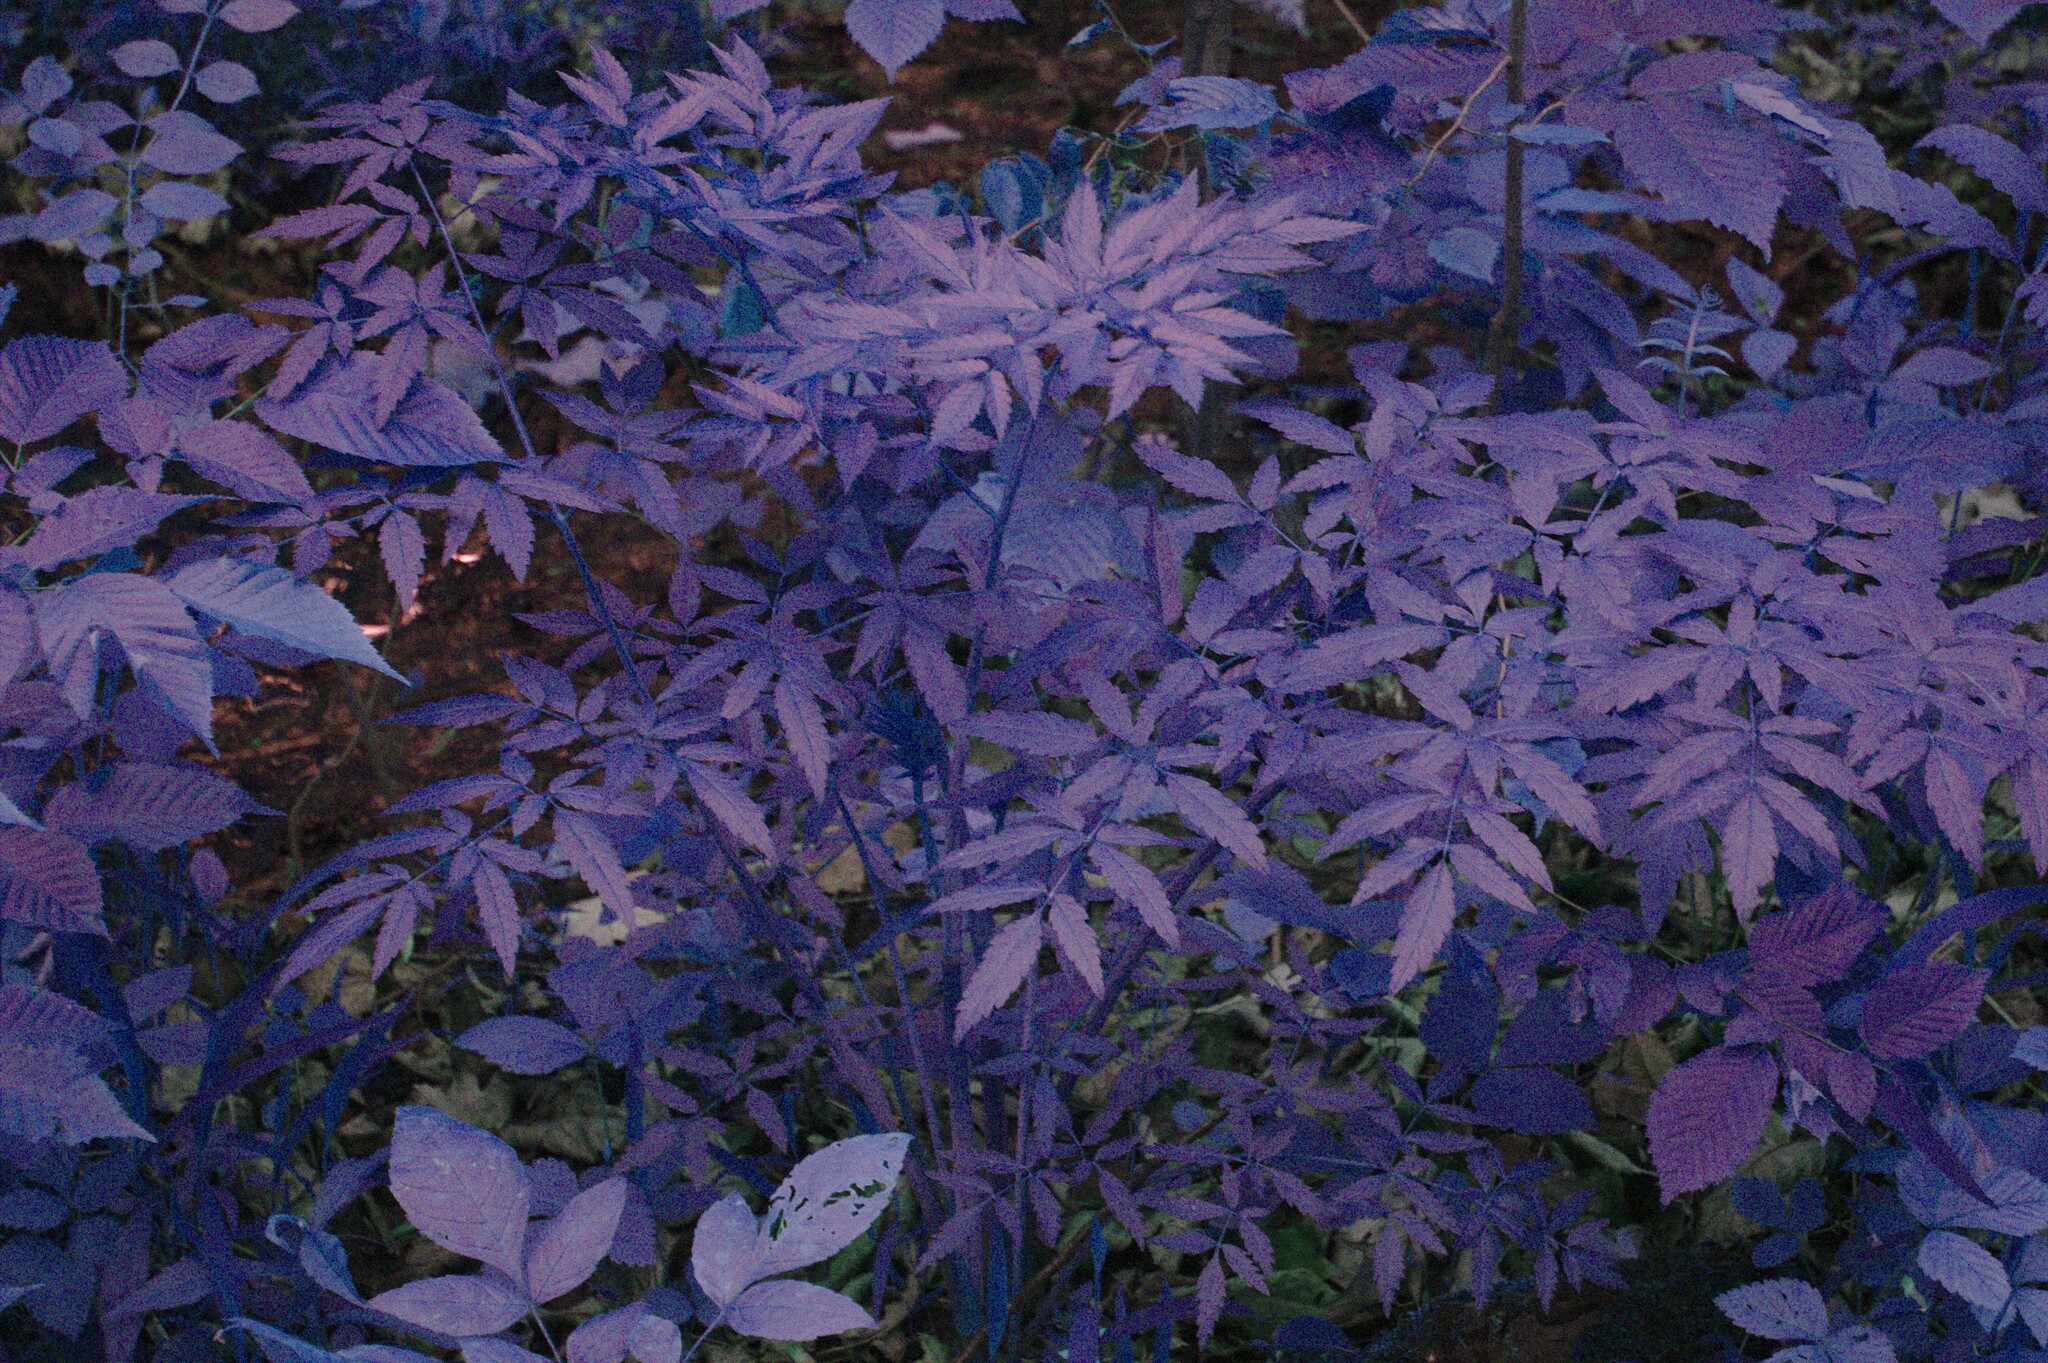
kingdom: Plantae
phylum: Tracheophyta
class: Magnoliopsida
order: Apiales
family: Apiaceae
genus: Cicuta
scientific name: Cicuta maculata
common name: Spotted cowbane
